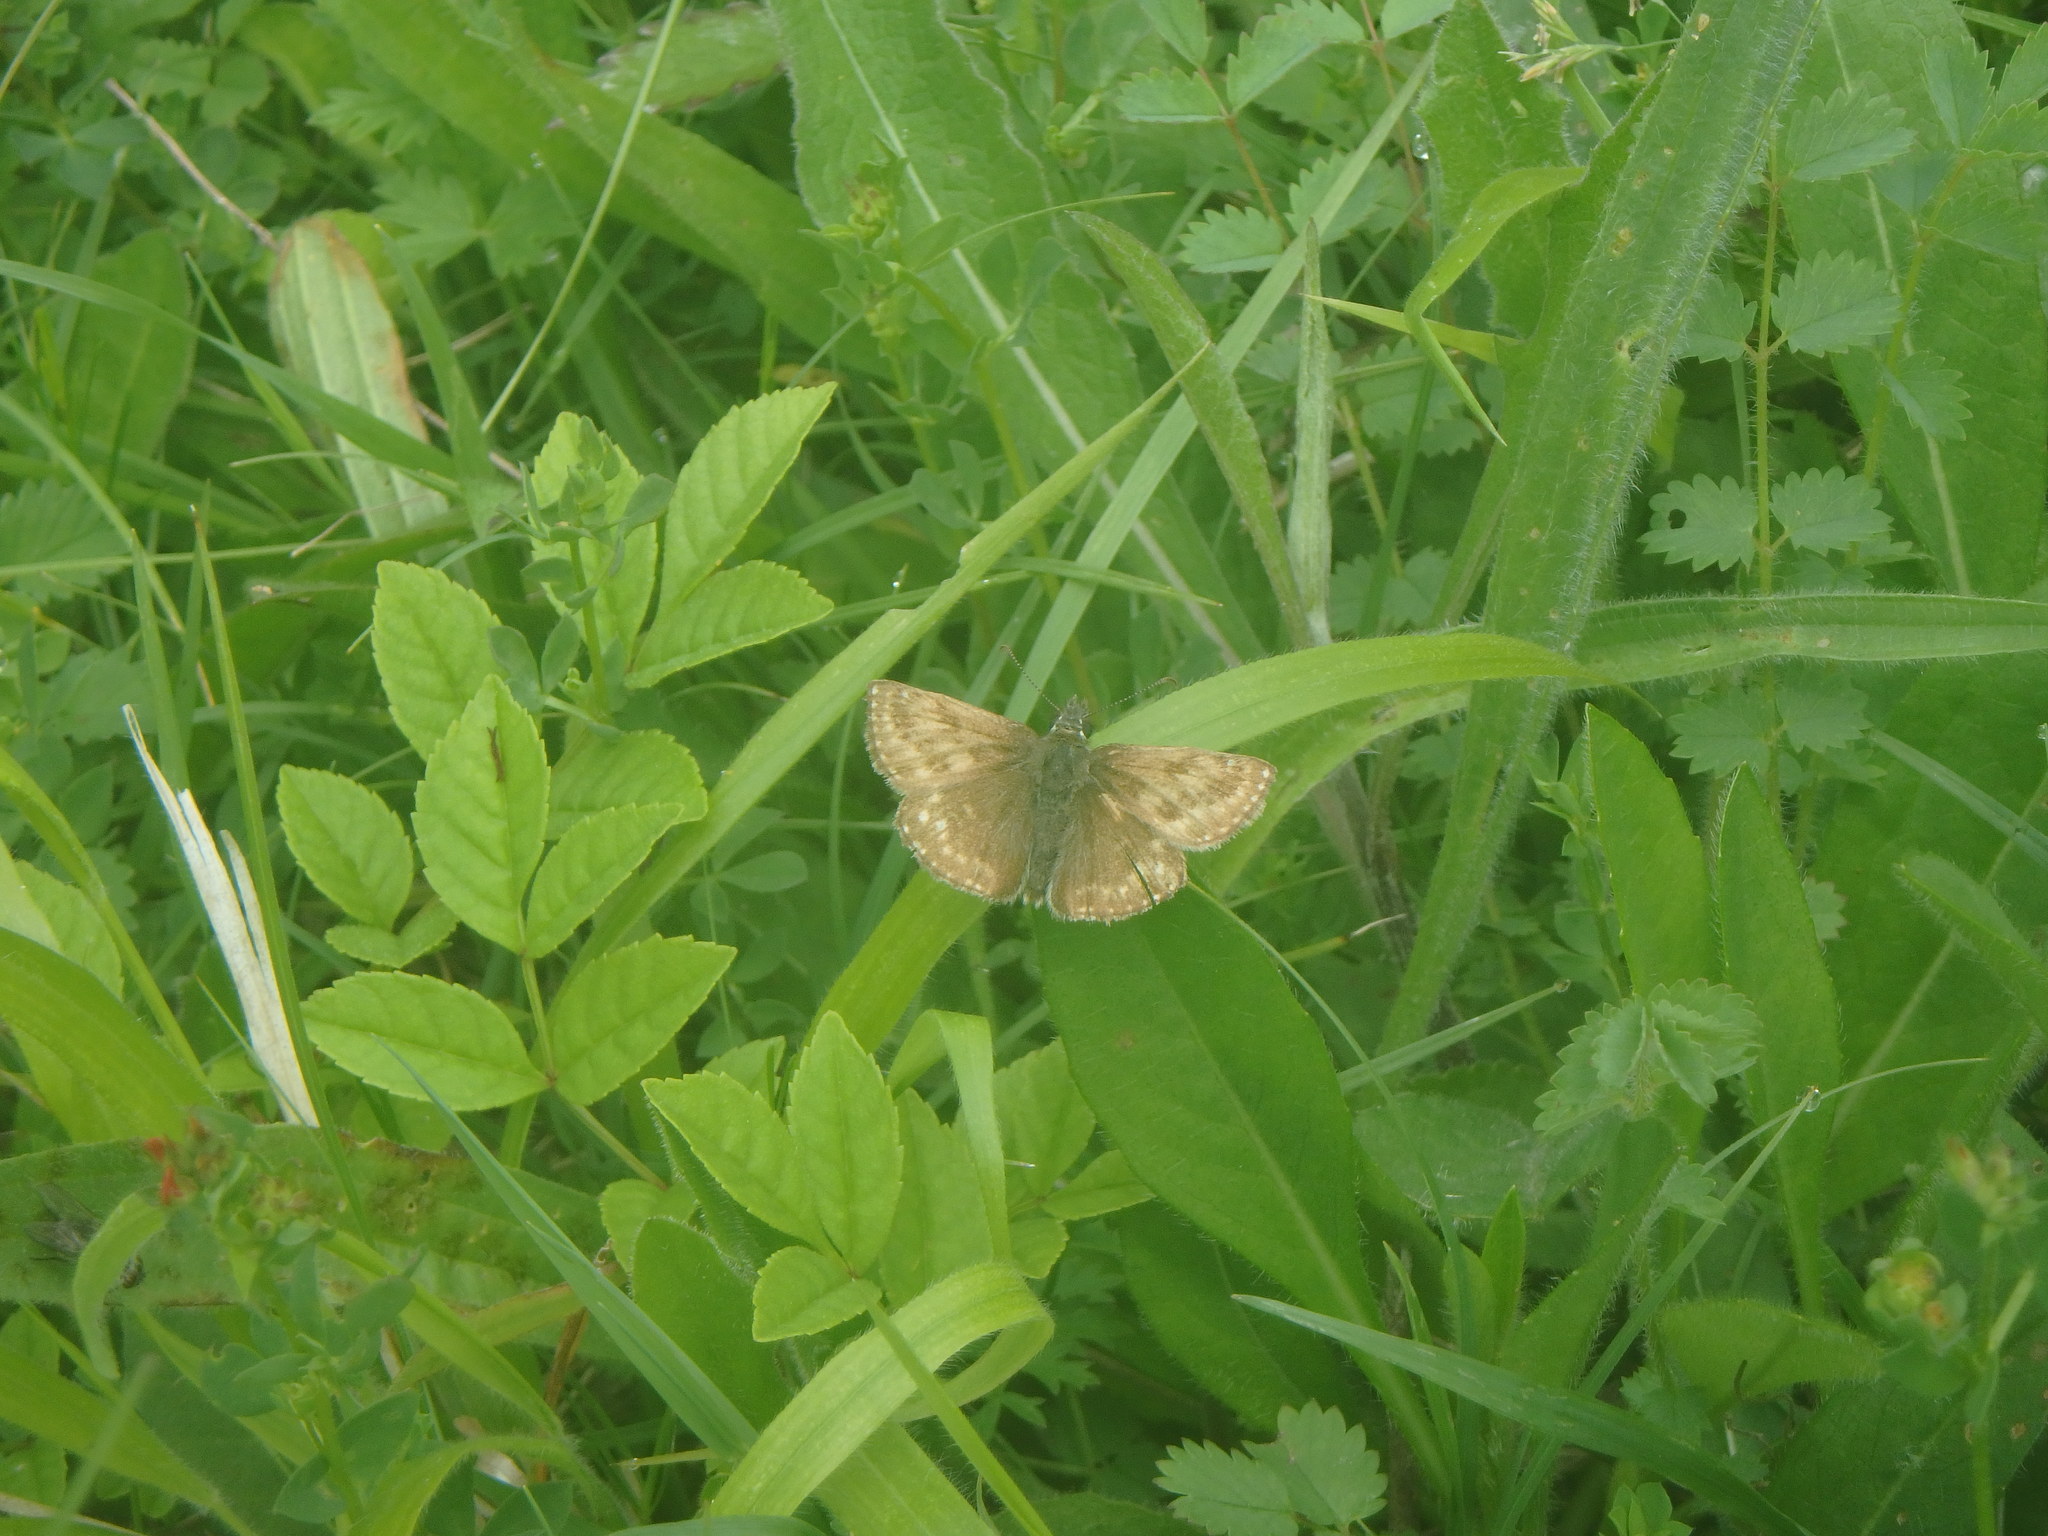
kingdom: Animalia
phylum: Arthropoda
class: Insecta
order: Lepidoptera
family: Hesperiidae
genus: Erynnis
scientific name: Erynnis tages
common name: Dingy skipper
